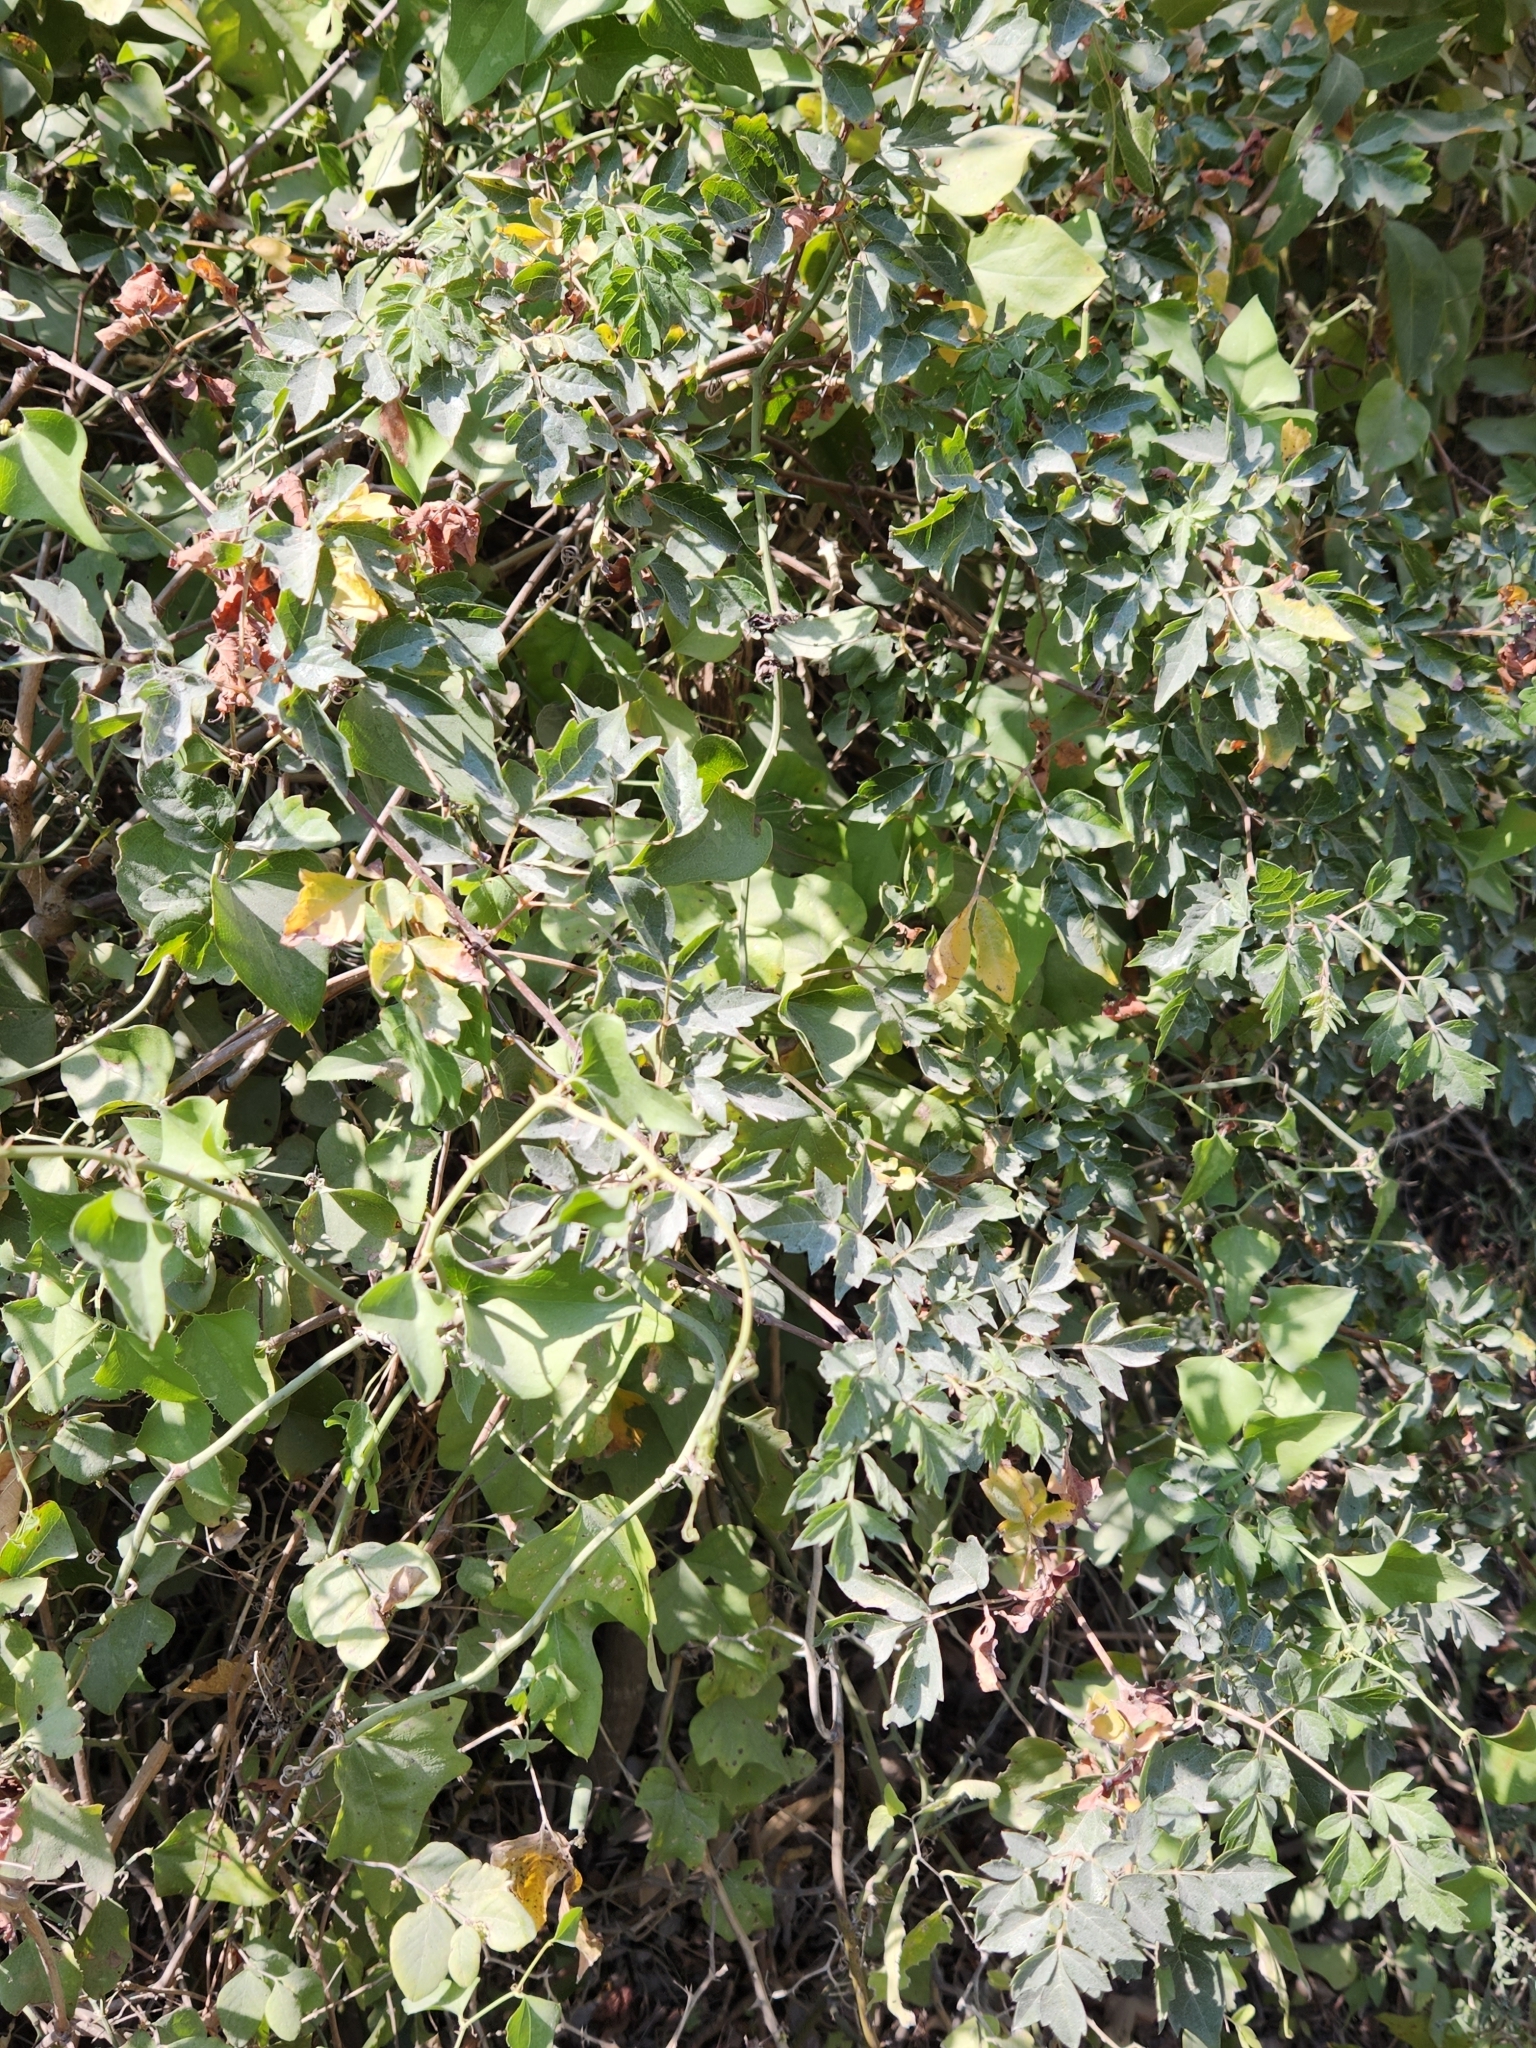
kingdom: Plantae
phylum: Tracheophyta
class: Magnoliopsida
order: Vitales
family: Vitaceae
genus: Nekemias
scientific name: Nekemias arborea
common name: Peppervine
